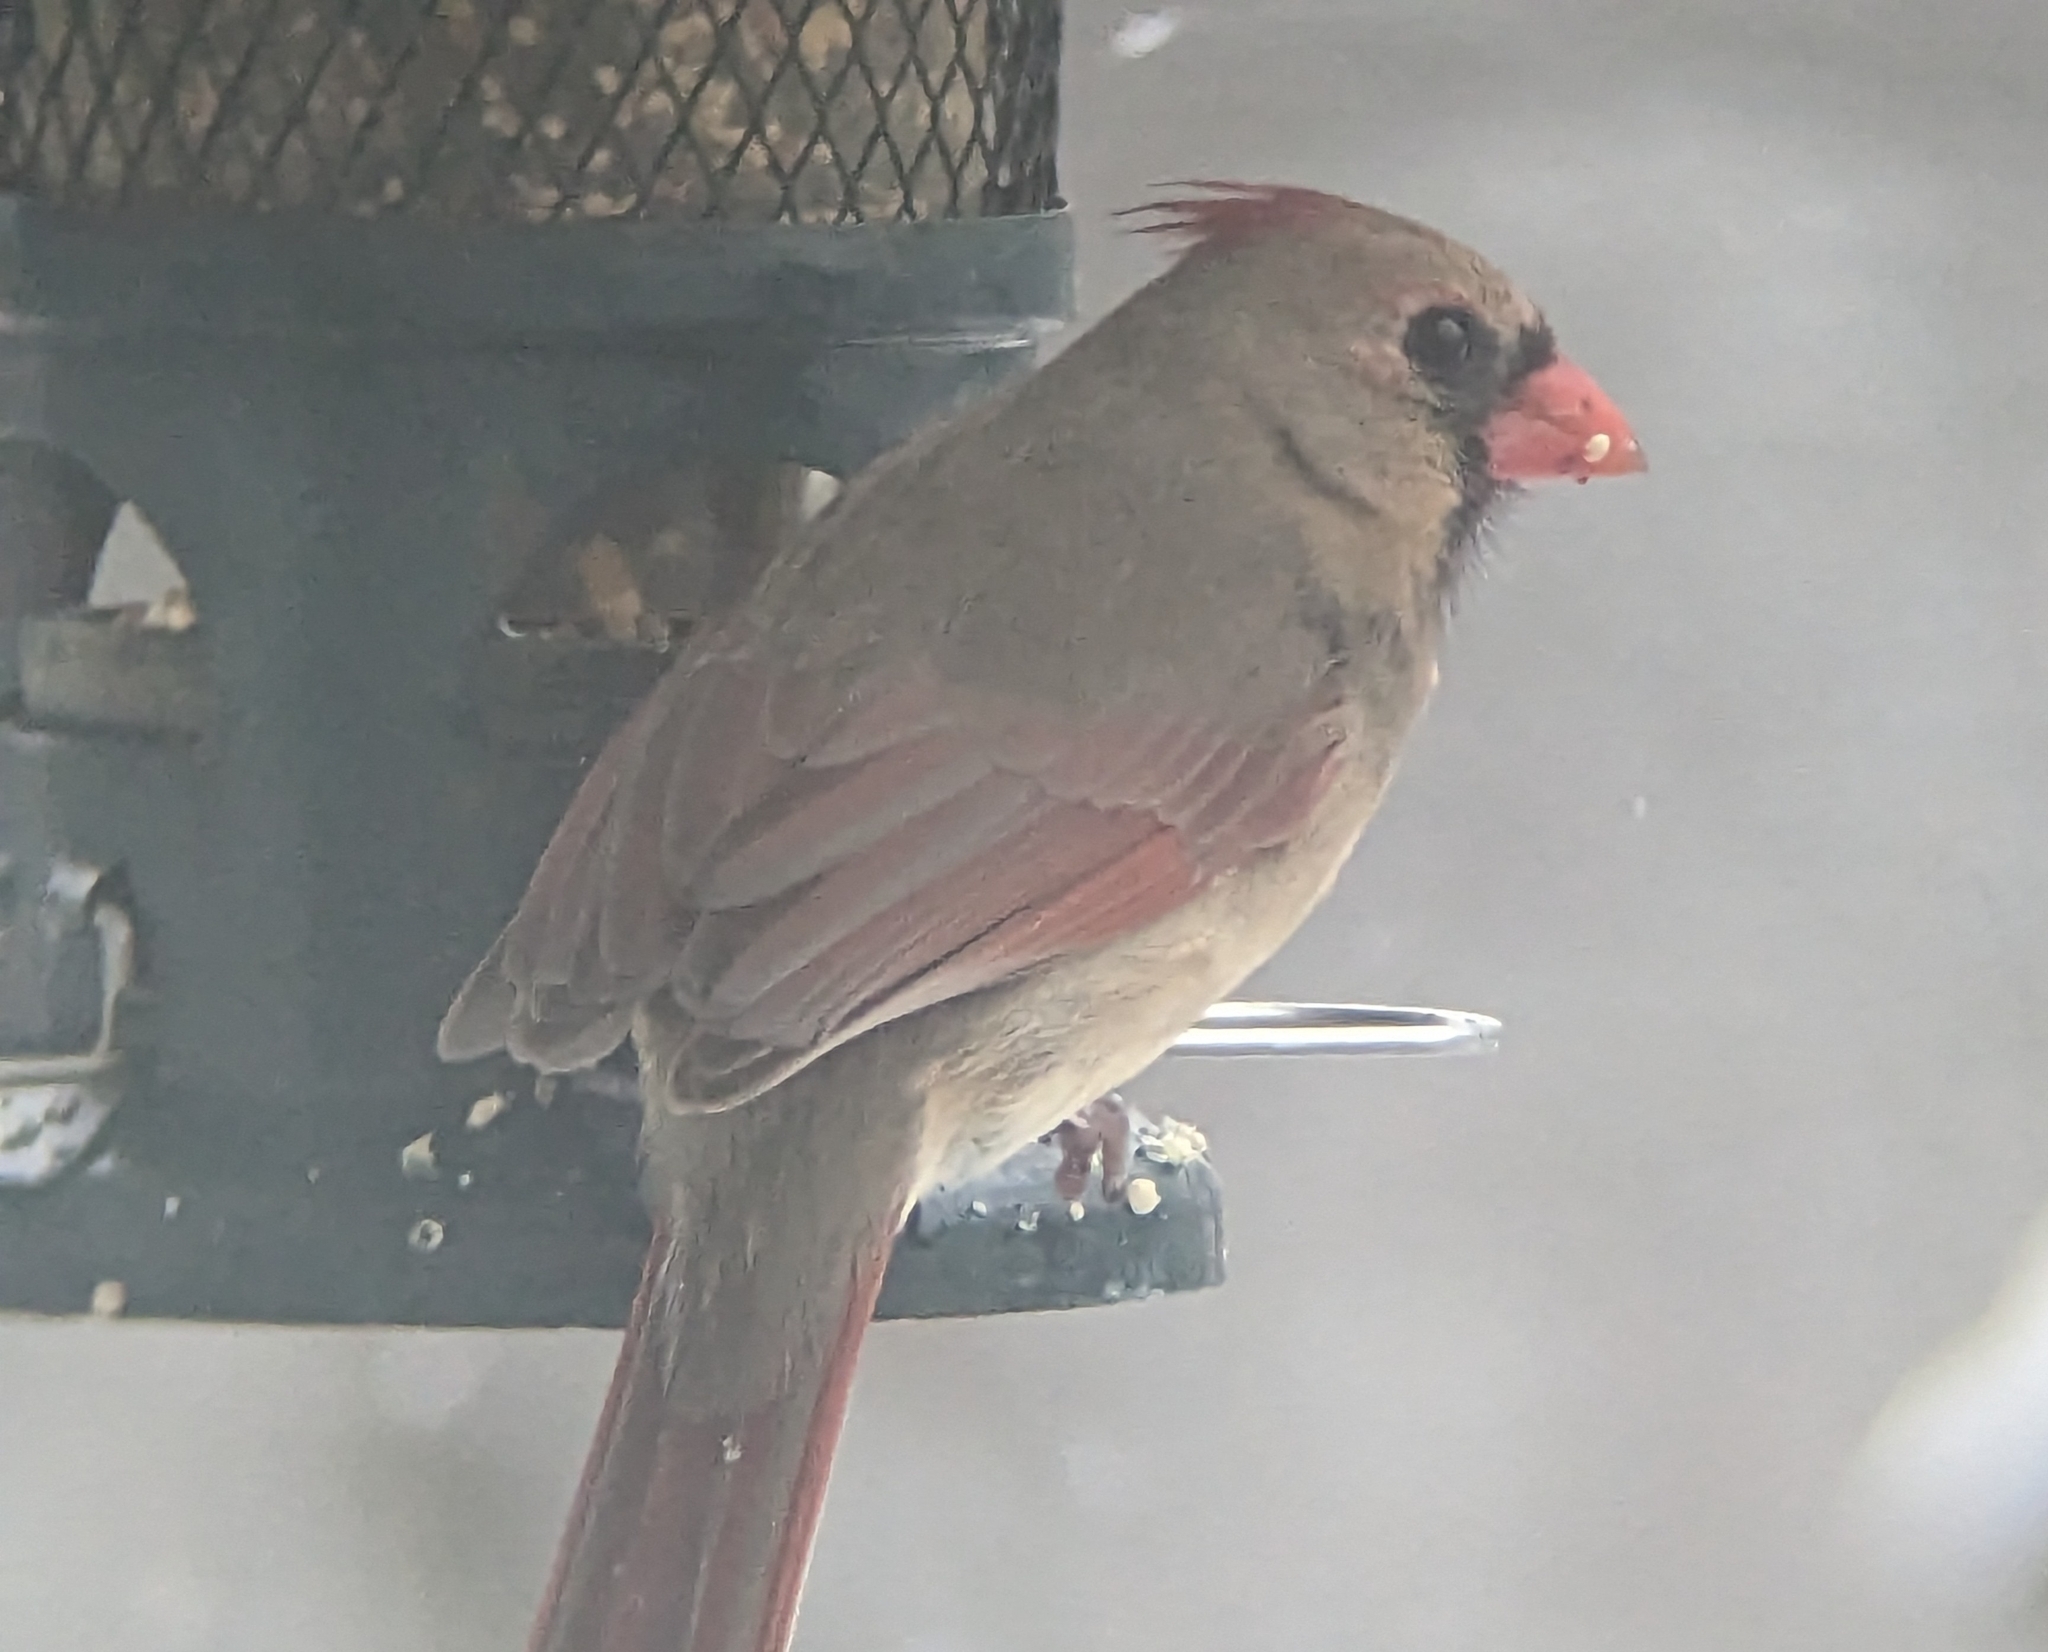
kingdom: Animalia
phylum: Chordata
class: Aves
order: Passeriformes
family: Cardinalidae
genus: Cardinalis
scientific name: Cardinalis cardinalis
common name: Northern cardinal
